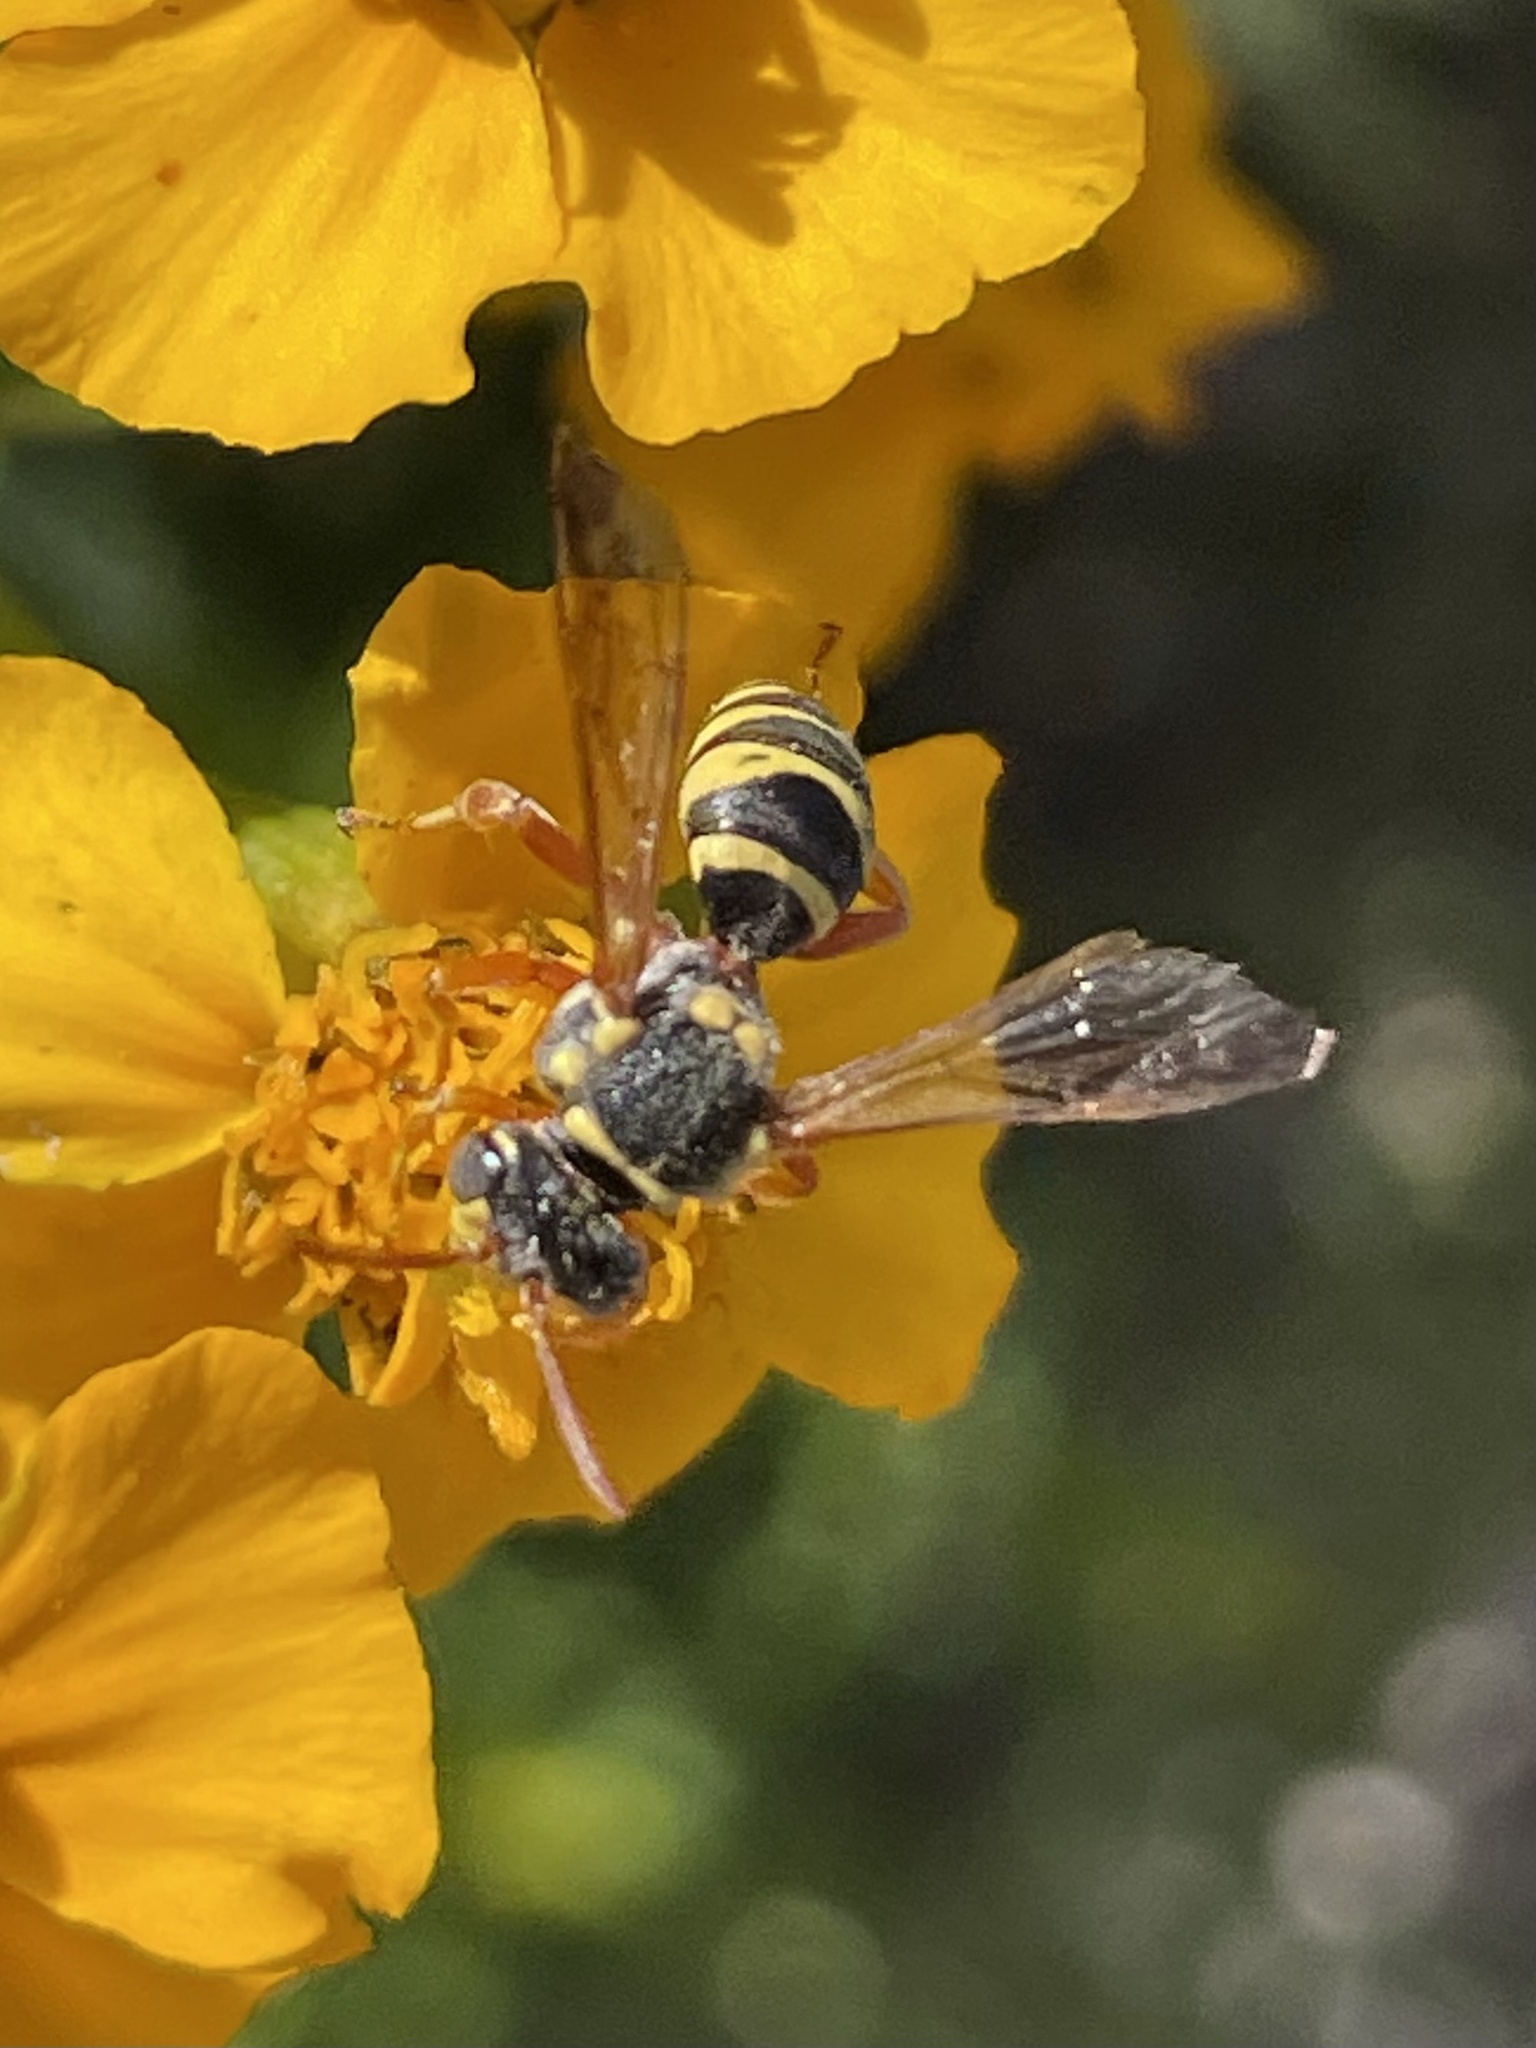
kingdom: Animalia
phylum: Arthropoda
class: Insecta
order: Hymenoptera
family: Apidae
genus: Nomada
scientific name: Nomada texana
